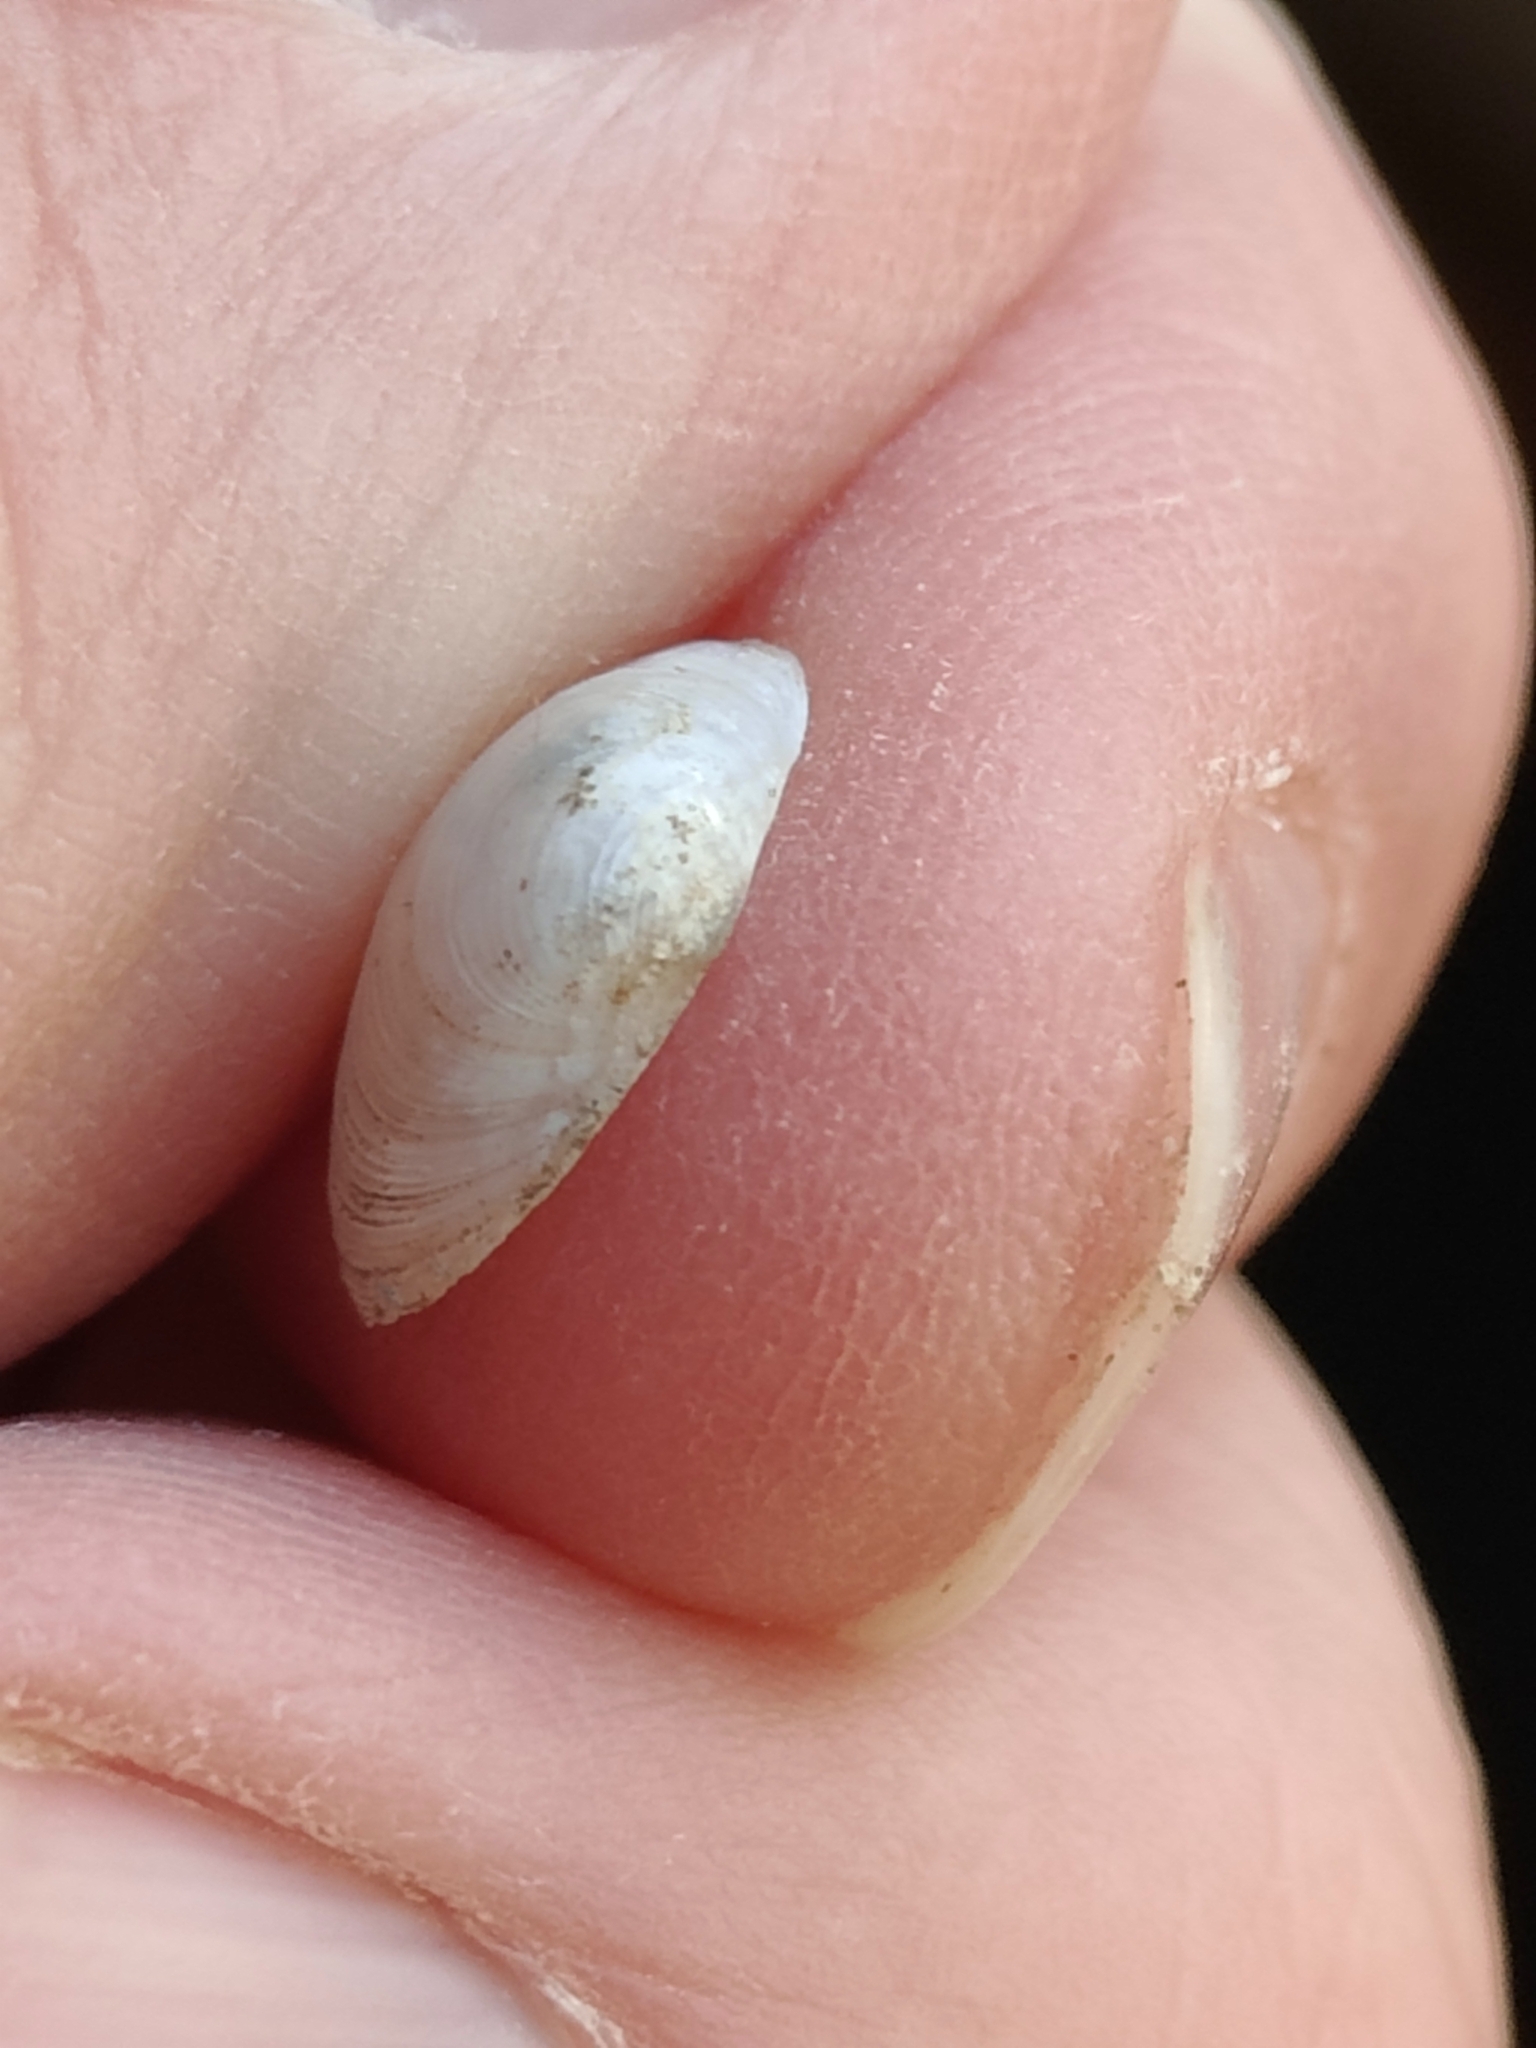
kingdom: Animalia
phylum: Mollusca
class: Bivalvia
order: Sphaeriida
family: Sphaeriidae
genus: Sphaerium
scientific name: Sphaerium striatinum
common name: Striated fingernailclam
